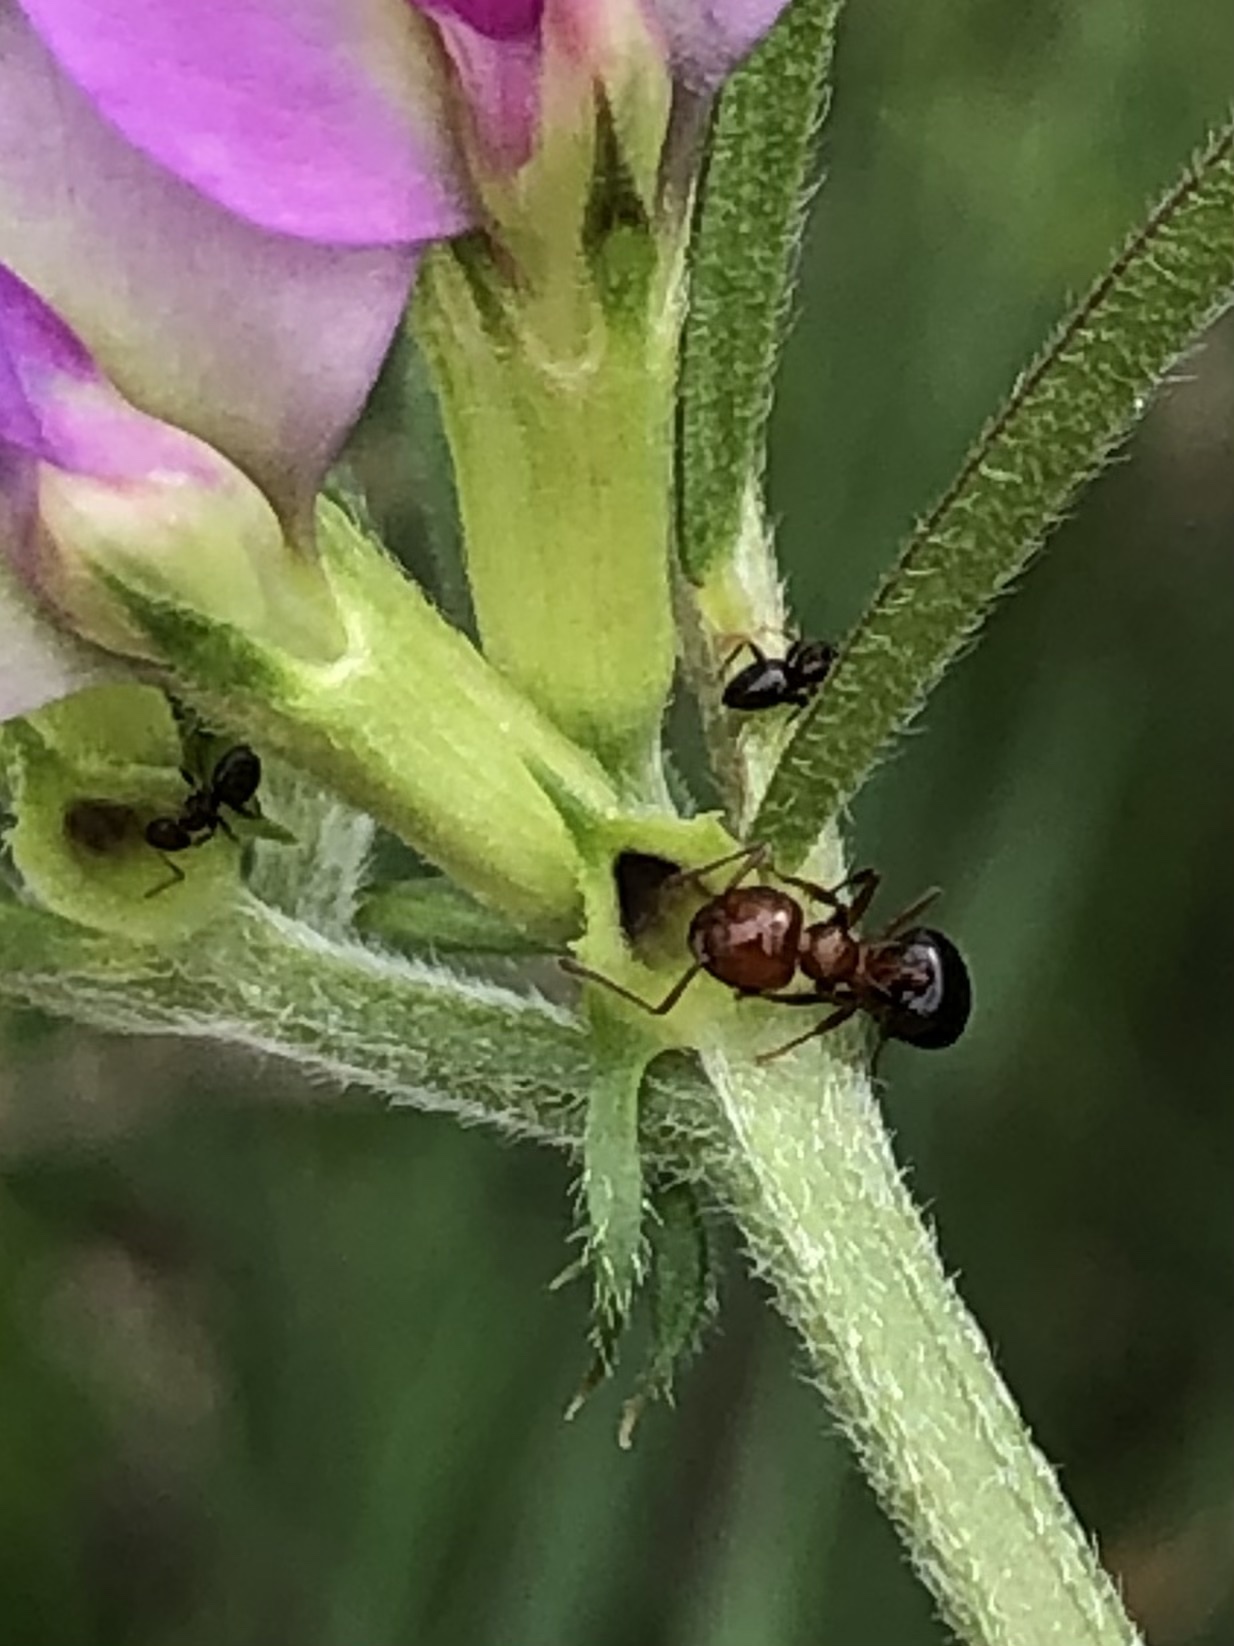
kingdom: Animalia
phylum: Arthropoda
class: Insecta
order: Hymenoptera
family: Formicidae
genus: Crematogaster
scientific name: Crematogaster laeviuscula
